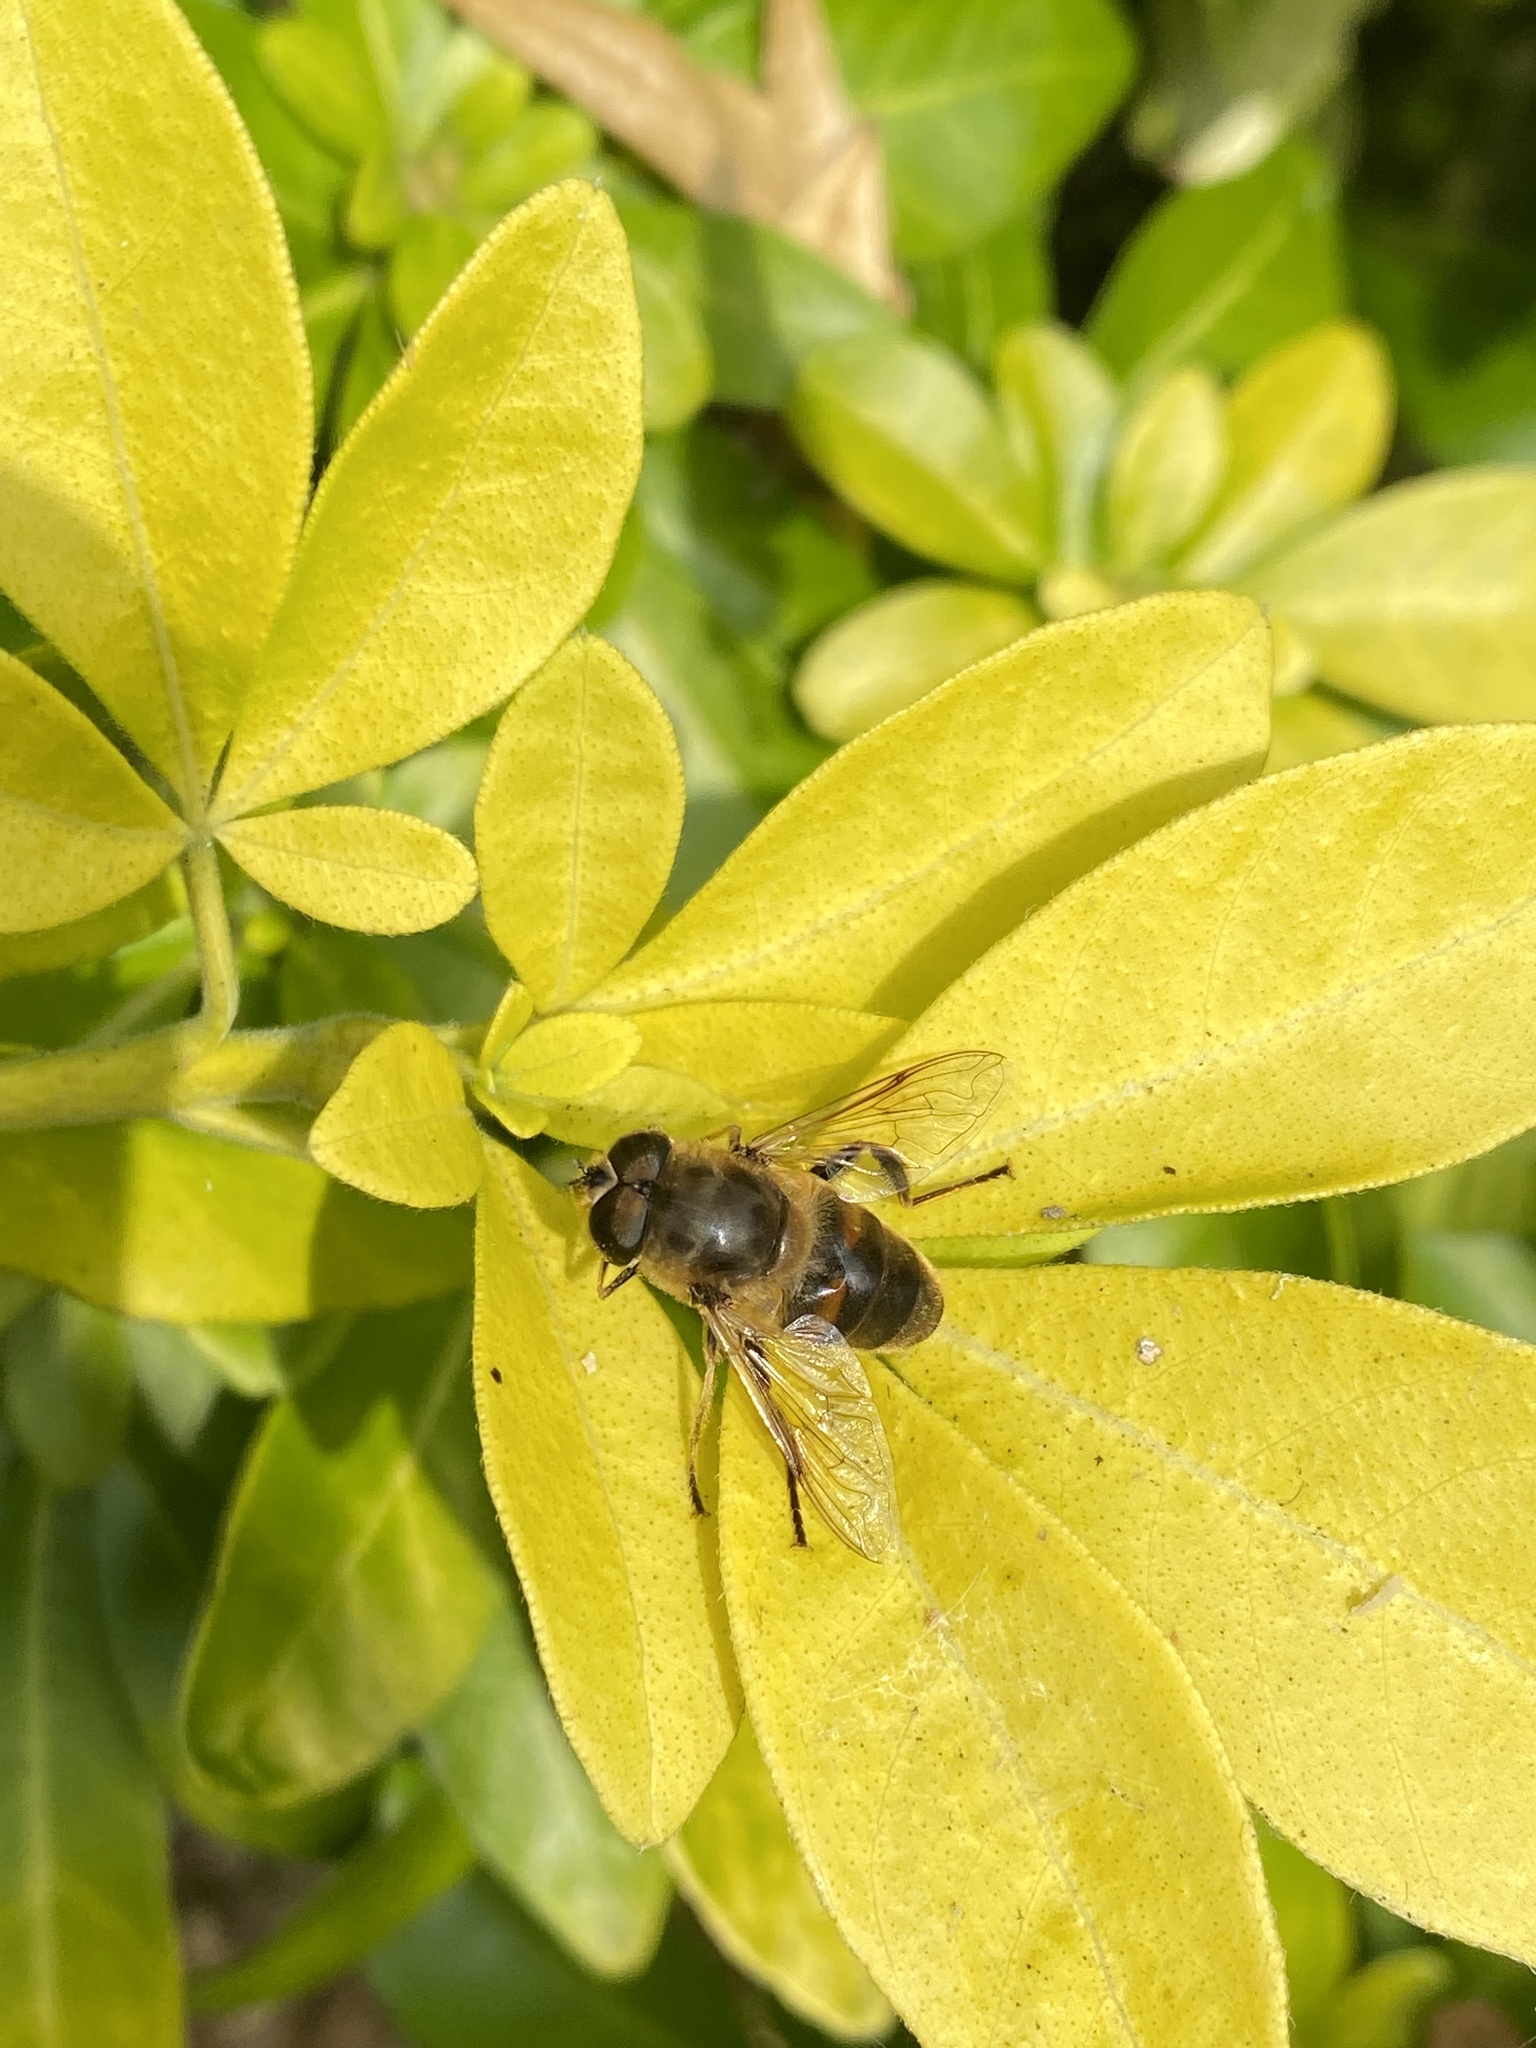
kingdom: Animalia
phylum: Arthropoda
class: Insecta
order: Diptera
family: Syrphidae
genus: Eristalis
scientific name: Eristalis tenax
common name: Drone fly
